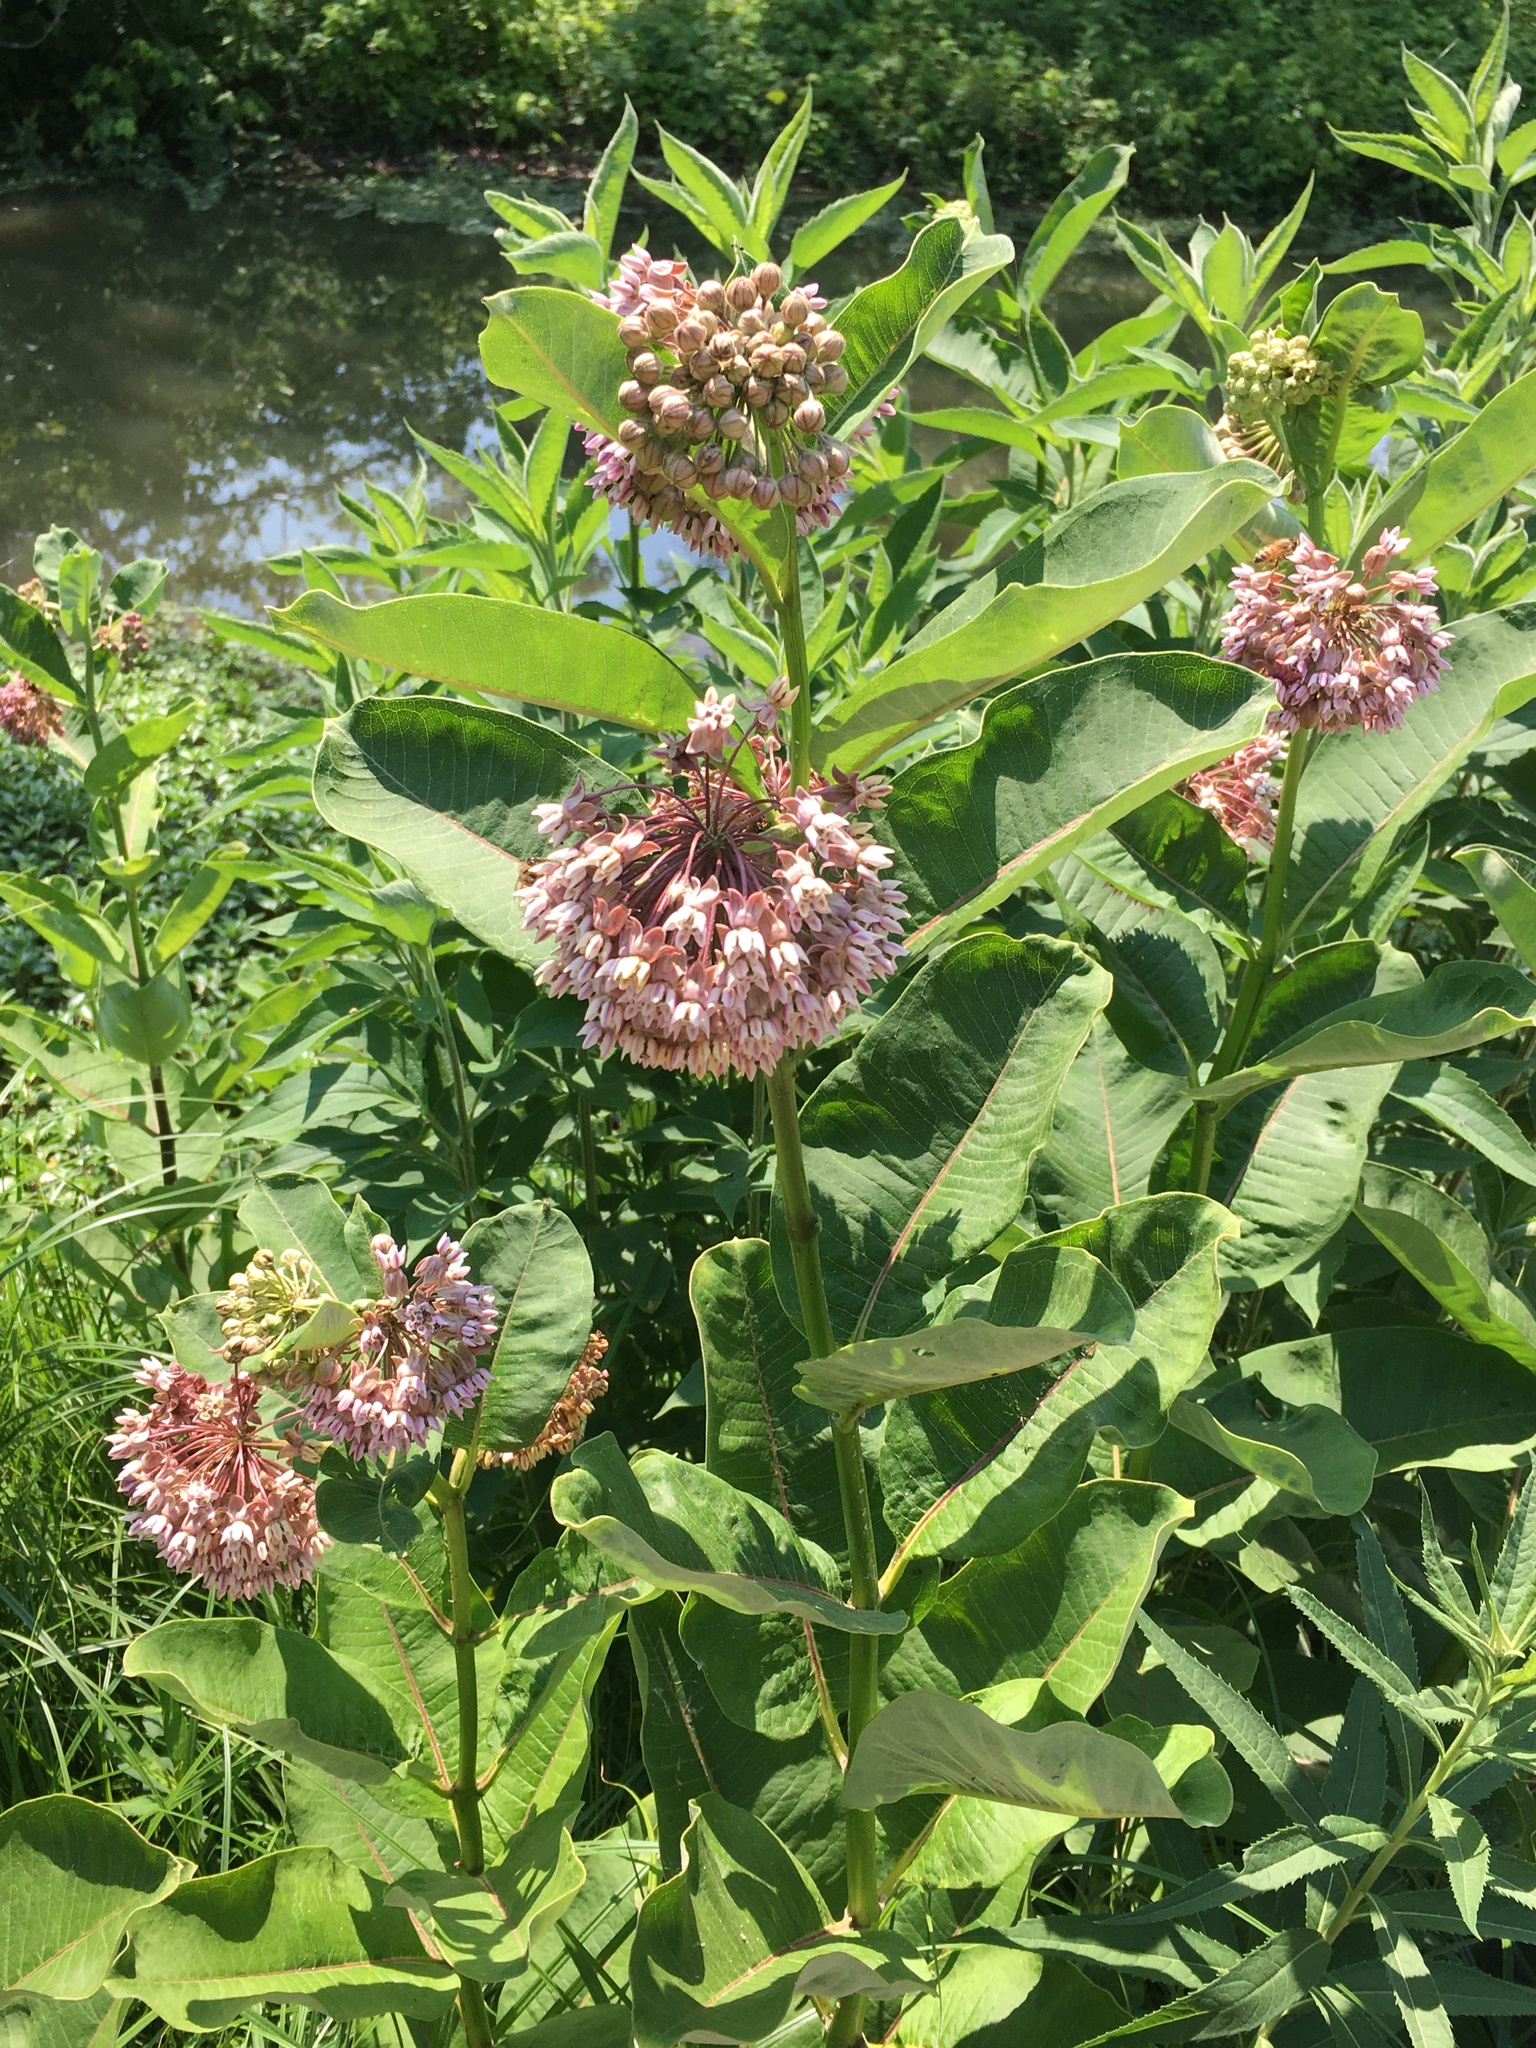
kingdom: Plantae
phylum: Tracheophyta
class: Magnoliopsida
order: Gentianales
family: Apocynaceae
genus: Asclepias
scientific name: Asclepias syriaca
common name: Common milkweed
